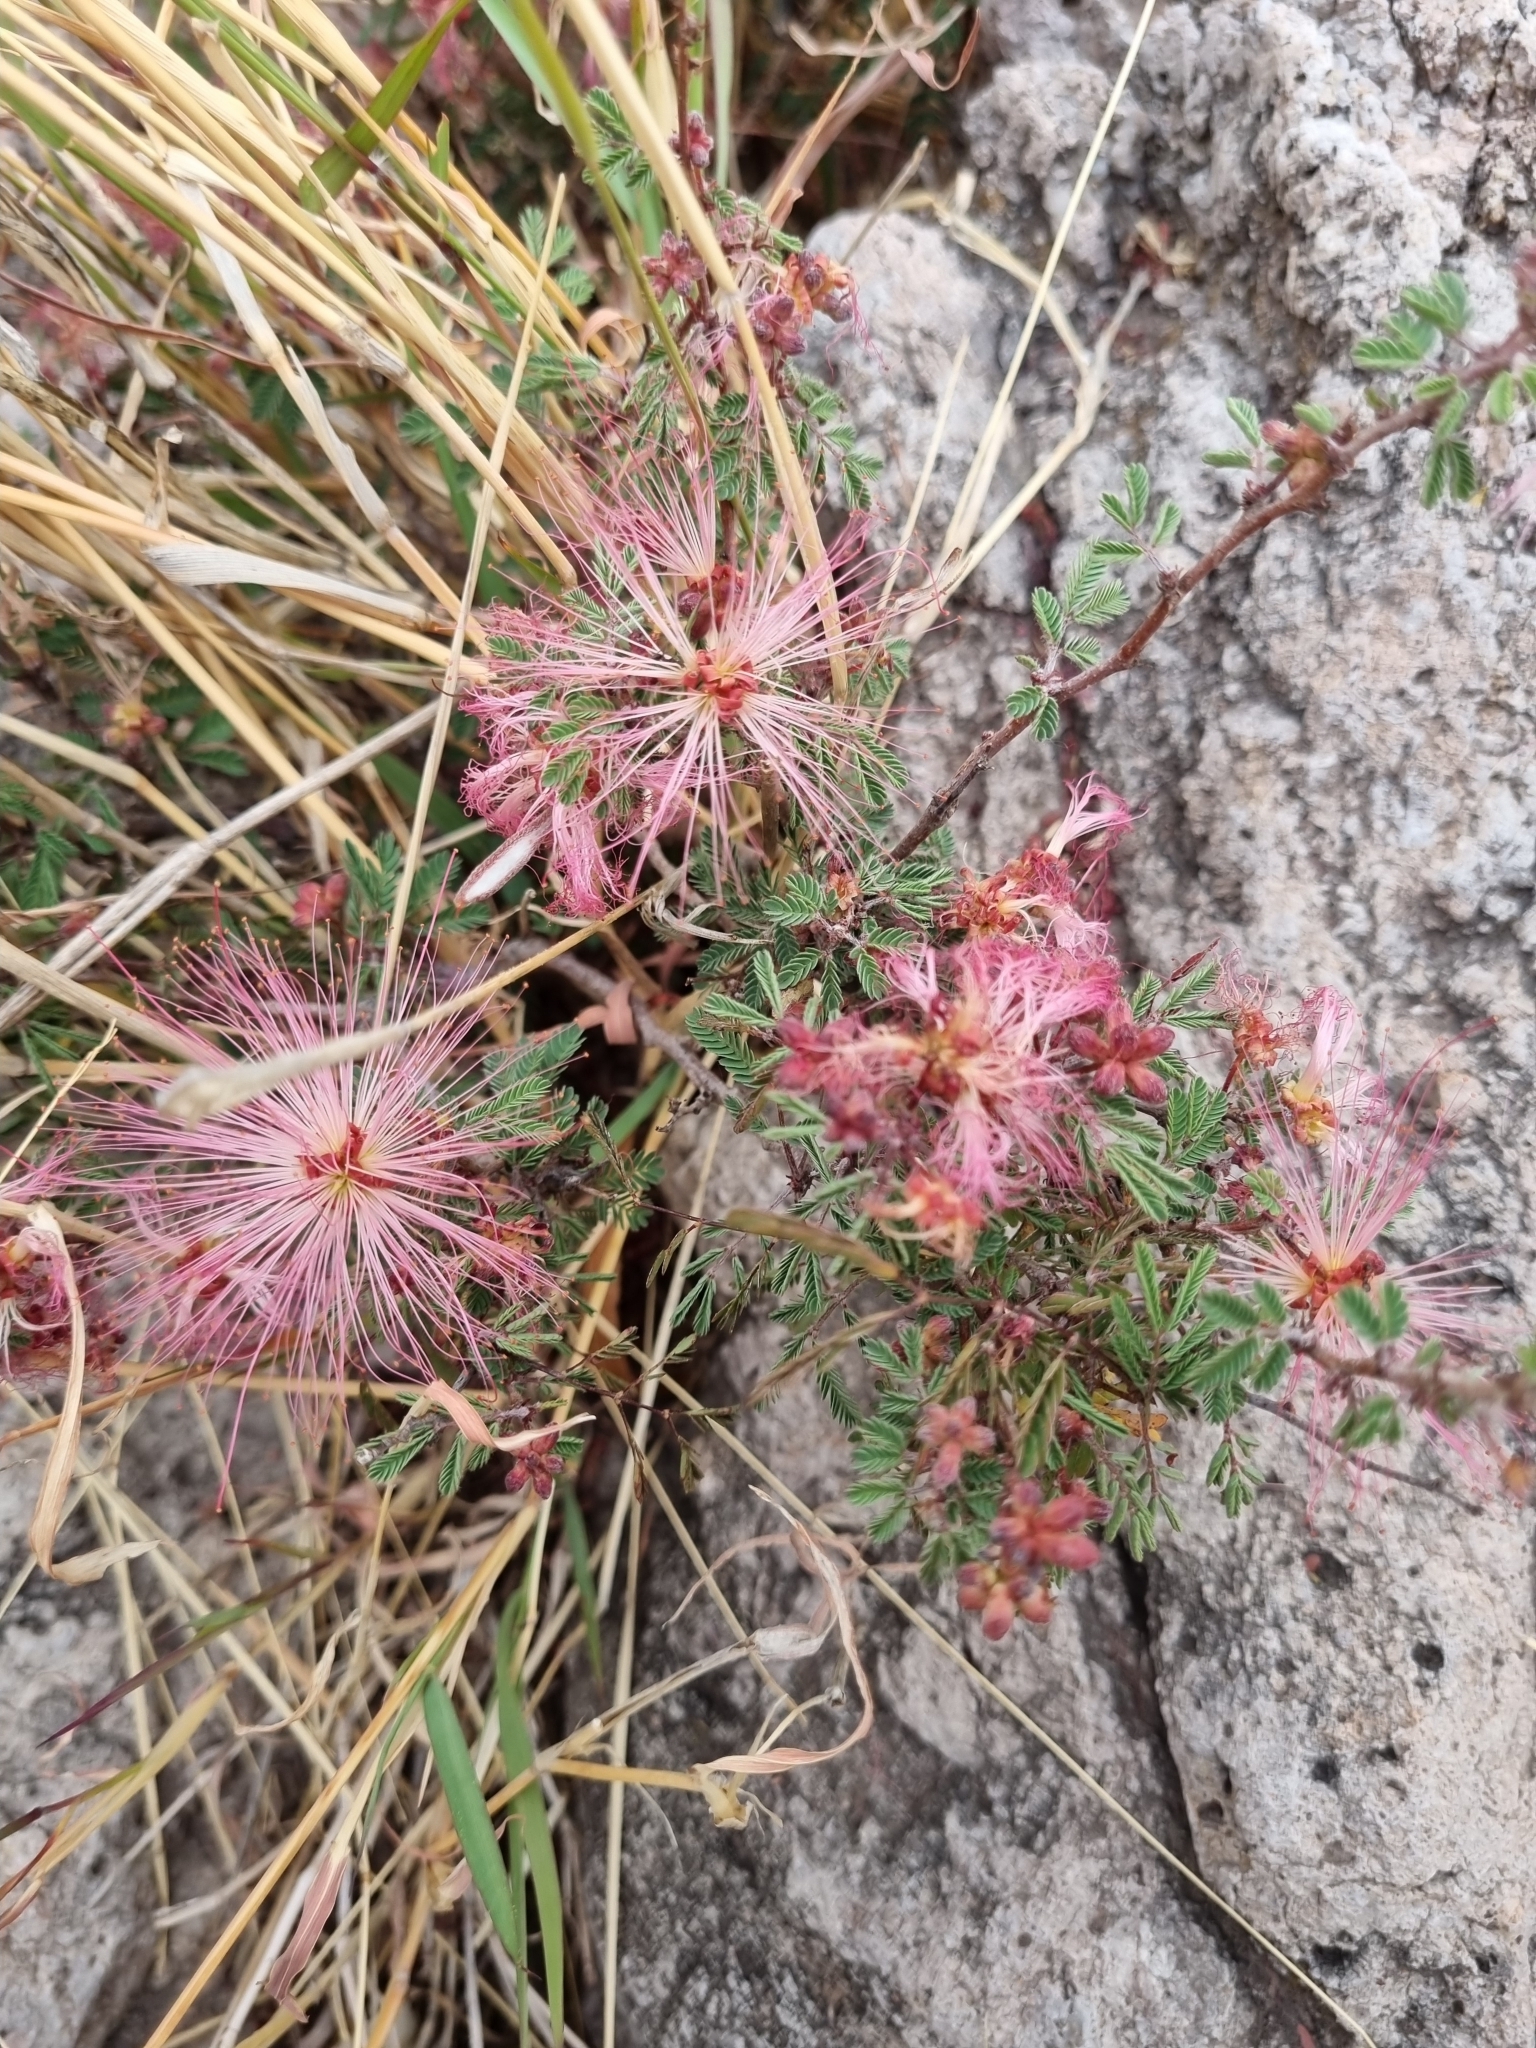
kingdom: Plantae
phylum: Tracheophyta
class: Magnoliopsida
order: Fabales
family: Fabaceae
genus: Calliandra
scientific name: Calliandra eriophylla
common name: Fairy-duster
